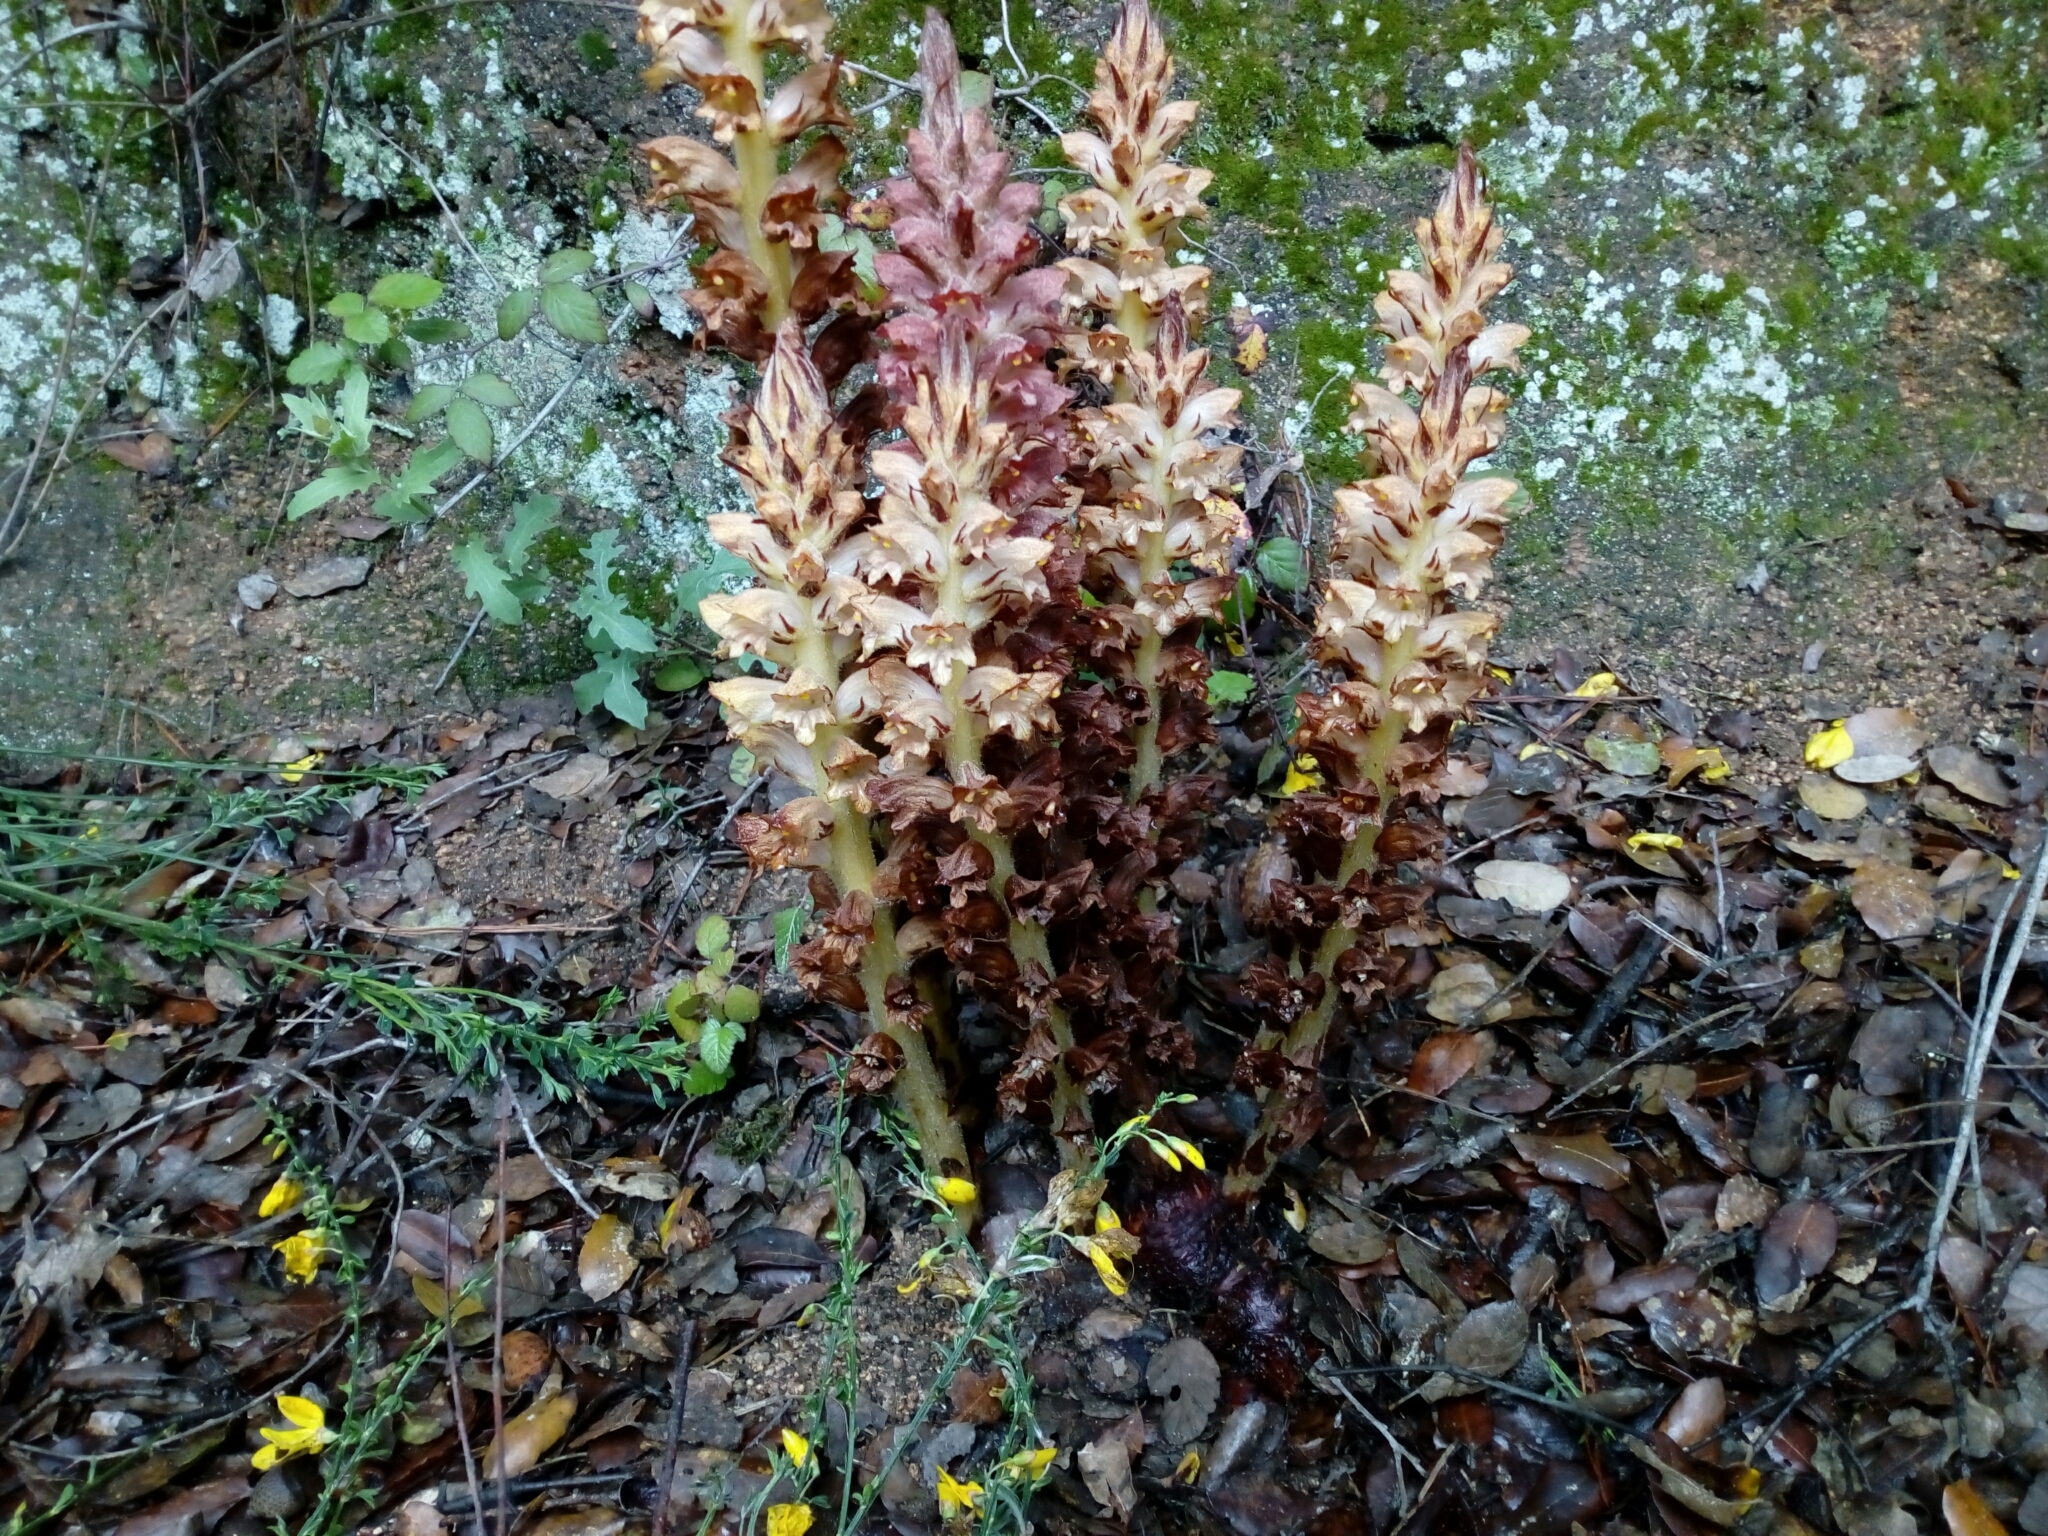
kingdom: Plantae
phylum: Tracheophyta
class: Magnoliopsida
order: Lamiales
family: Orobanchaceae
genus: Orobanche
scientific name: Orobanche rapum-genistae
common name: Greater broomrape
